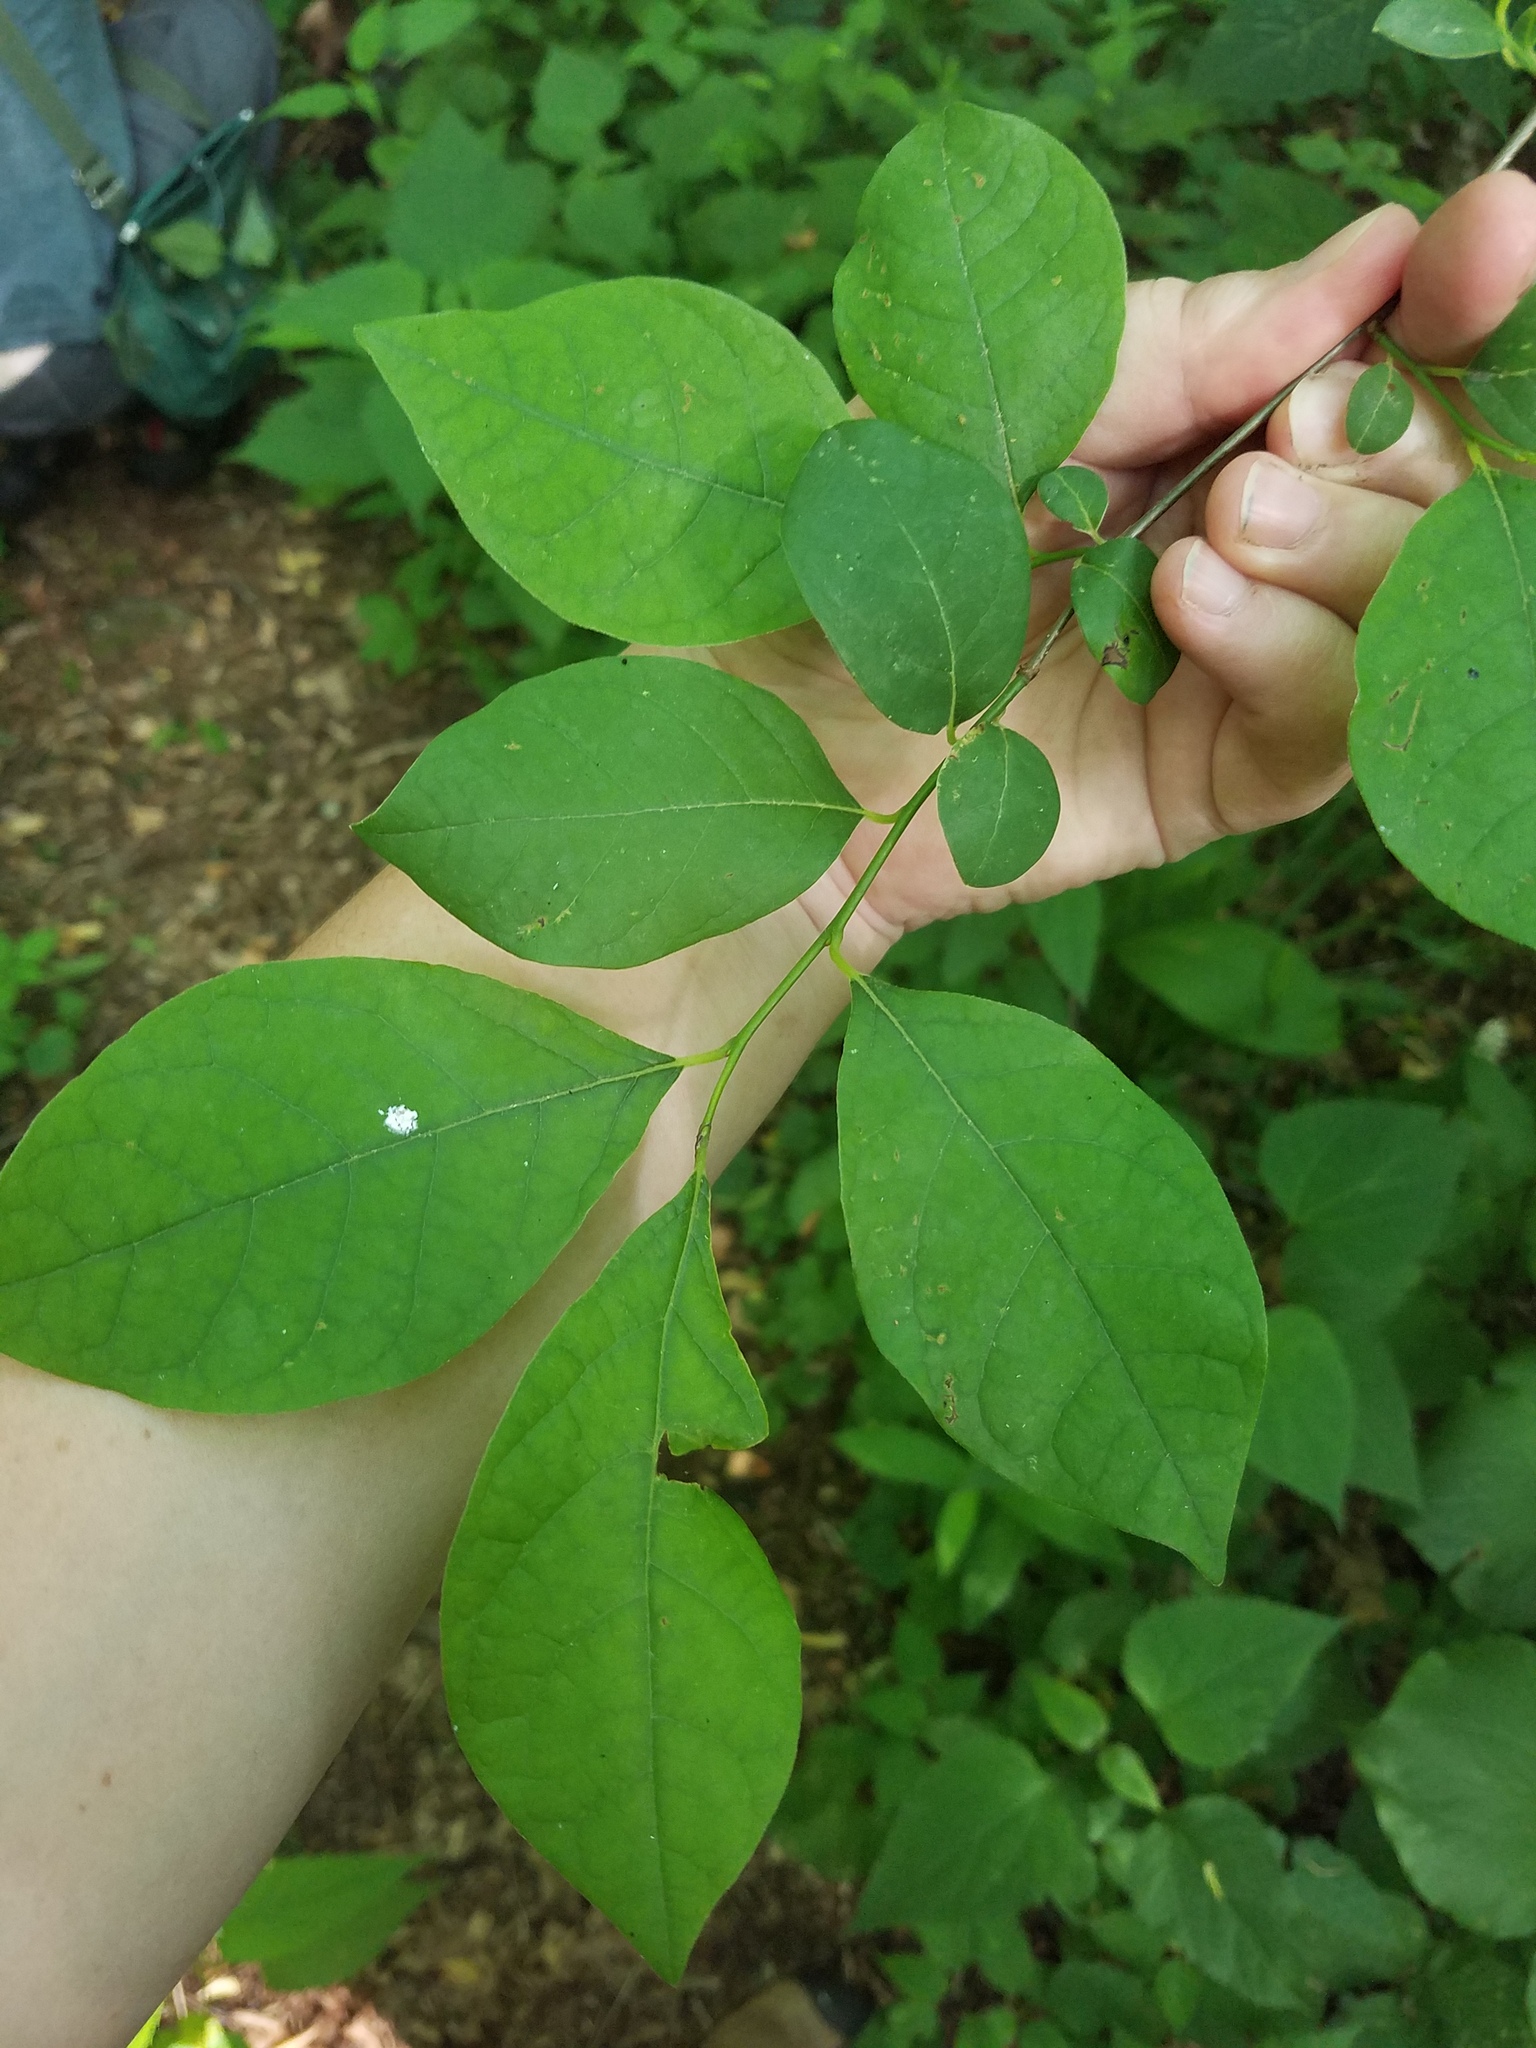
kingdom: Plantae
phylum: Tracheophyta
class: Magnoliopsida
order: Laurales
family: Lauraceae
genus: Lindera
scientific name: Lindera benzoin
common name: Spicebush
